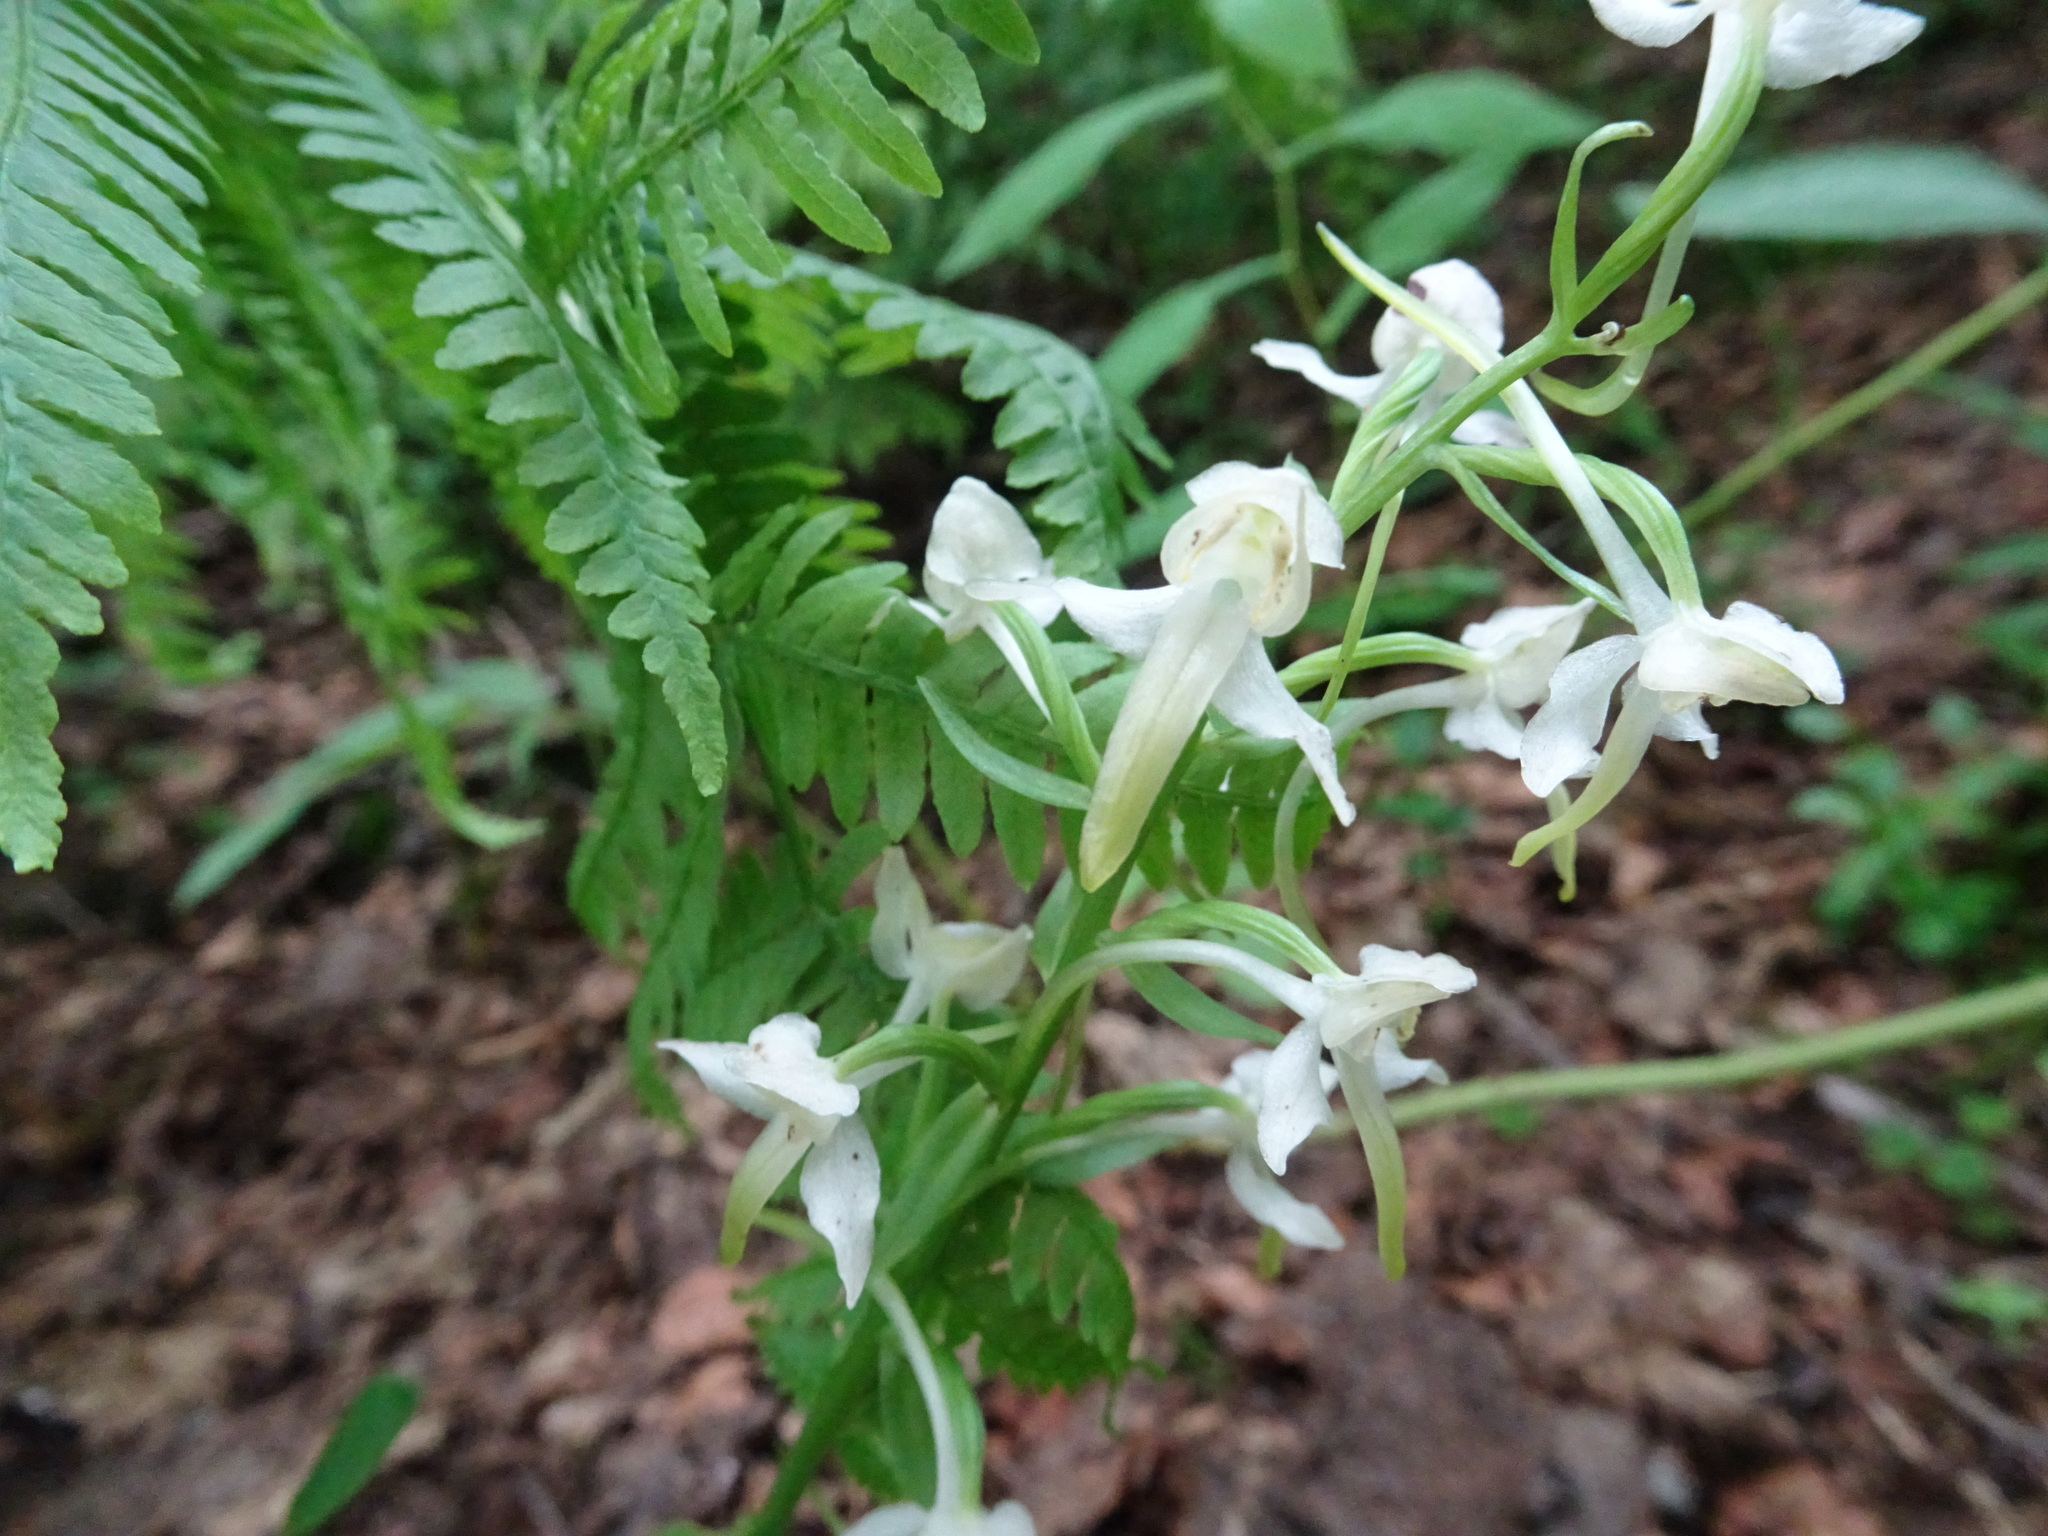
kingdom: Plantae
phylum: Tracheophyta
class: Liliopsida
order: Asparagales
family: Orchidaceae
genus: Platanthera
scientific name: Platanthera chlorantha
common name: Greater butterfly-orchid
